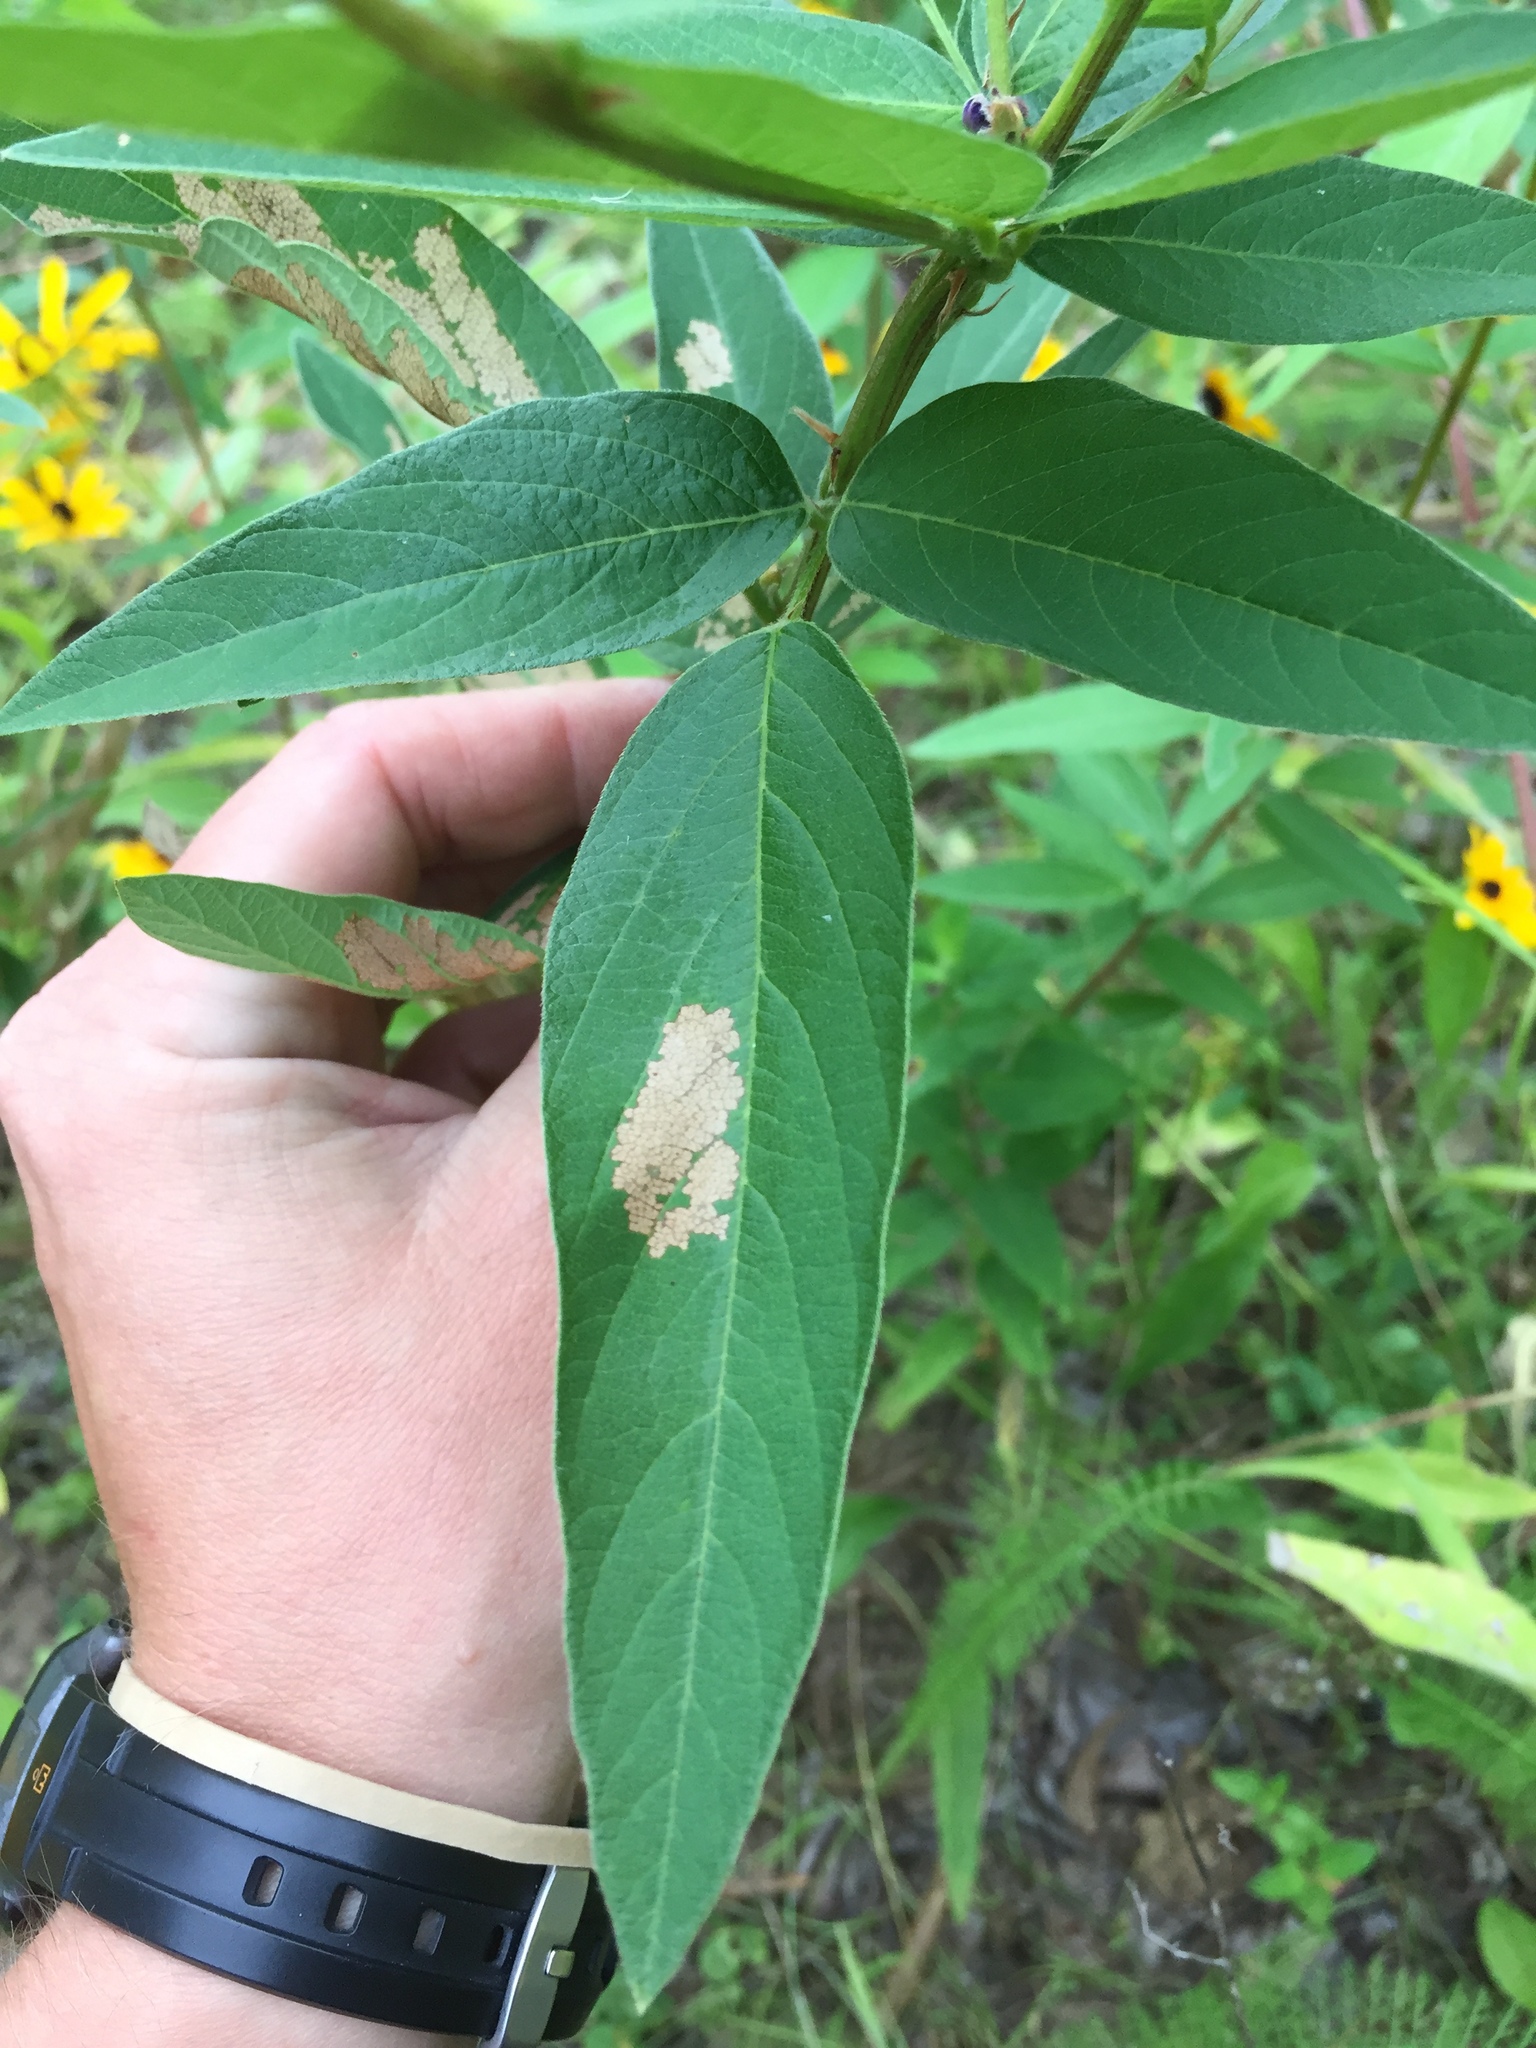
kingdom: Plantae
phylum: Tracheophyta
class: Magnoliopsida
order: Fabales
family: Fabaceae
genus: Desmodium
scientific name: Desmodium canadense
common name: Canada tick-trefoil
